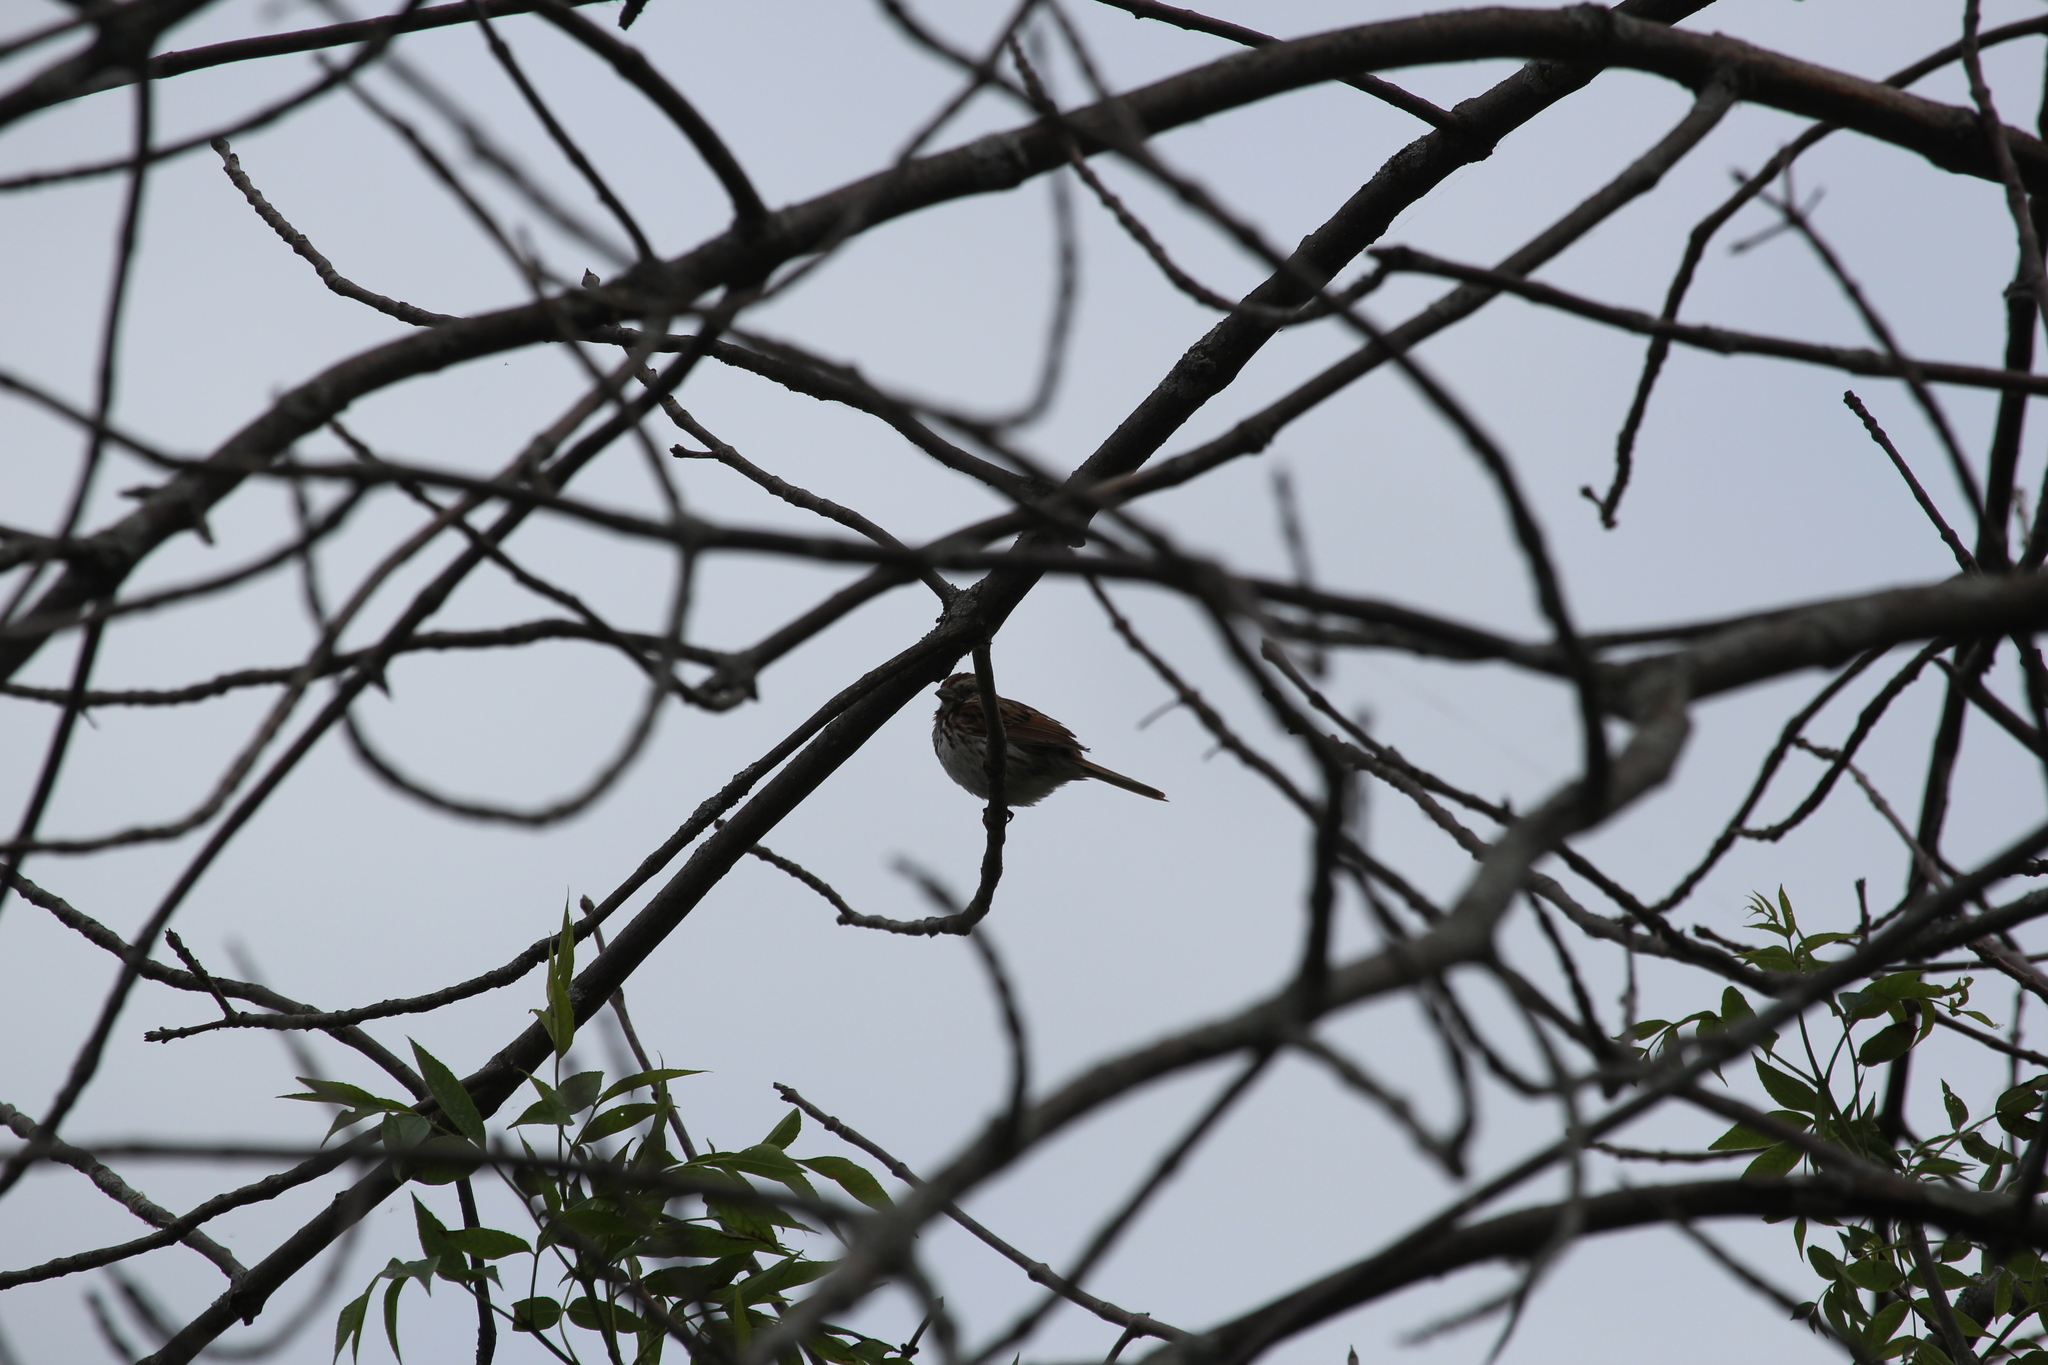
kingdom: Animalia
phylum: Chordata
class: Aves
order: Passeriformes
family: Passerellidae
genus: Melospiza
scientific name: Melospiza melodia
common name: Song sparrow
